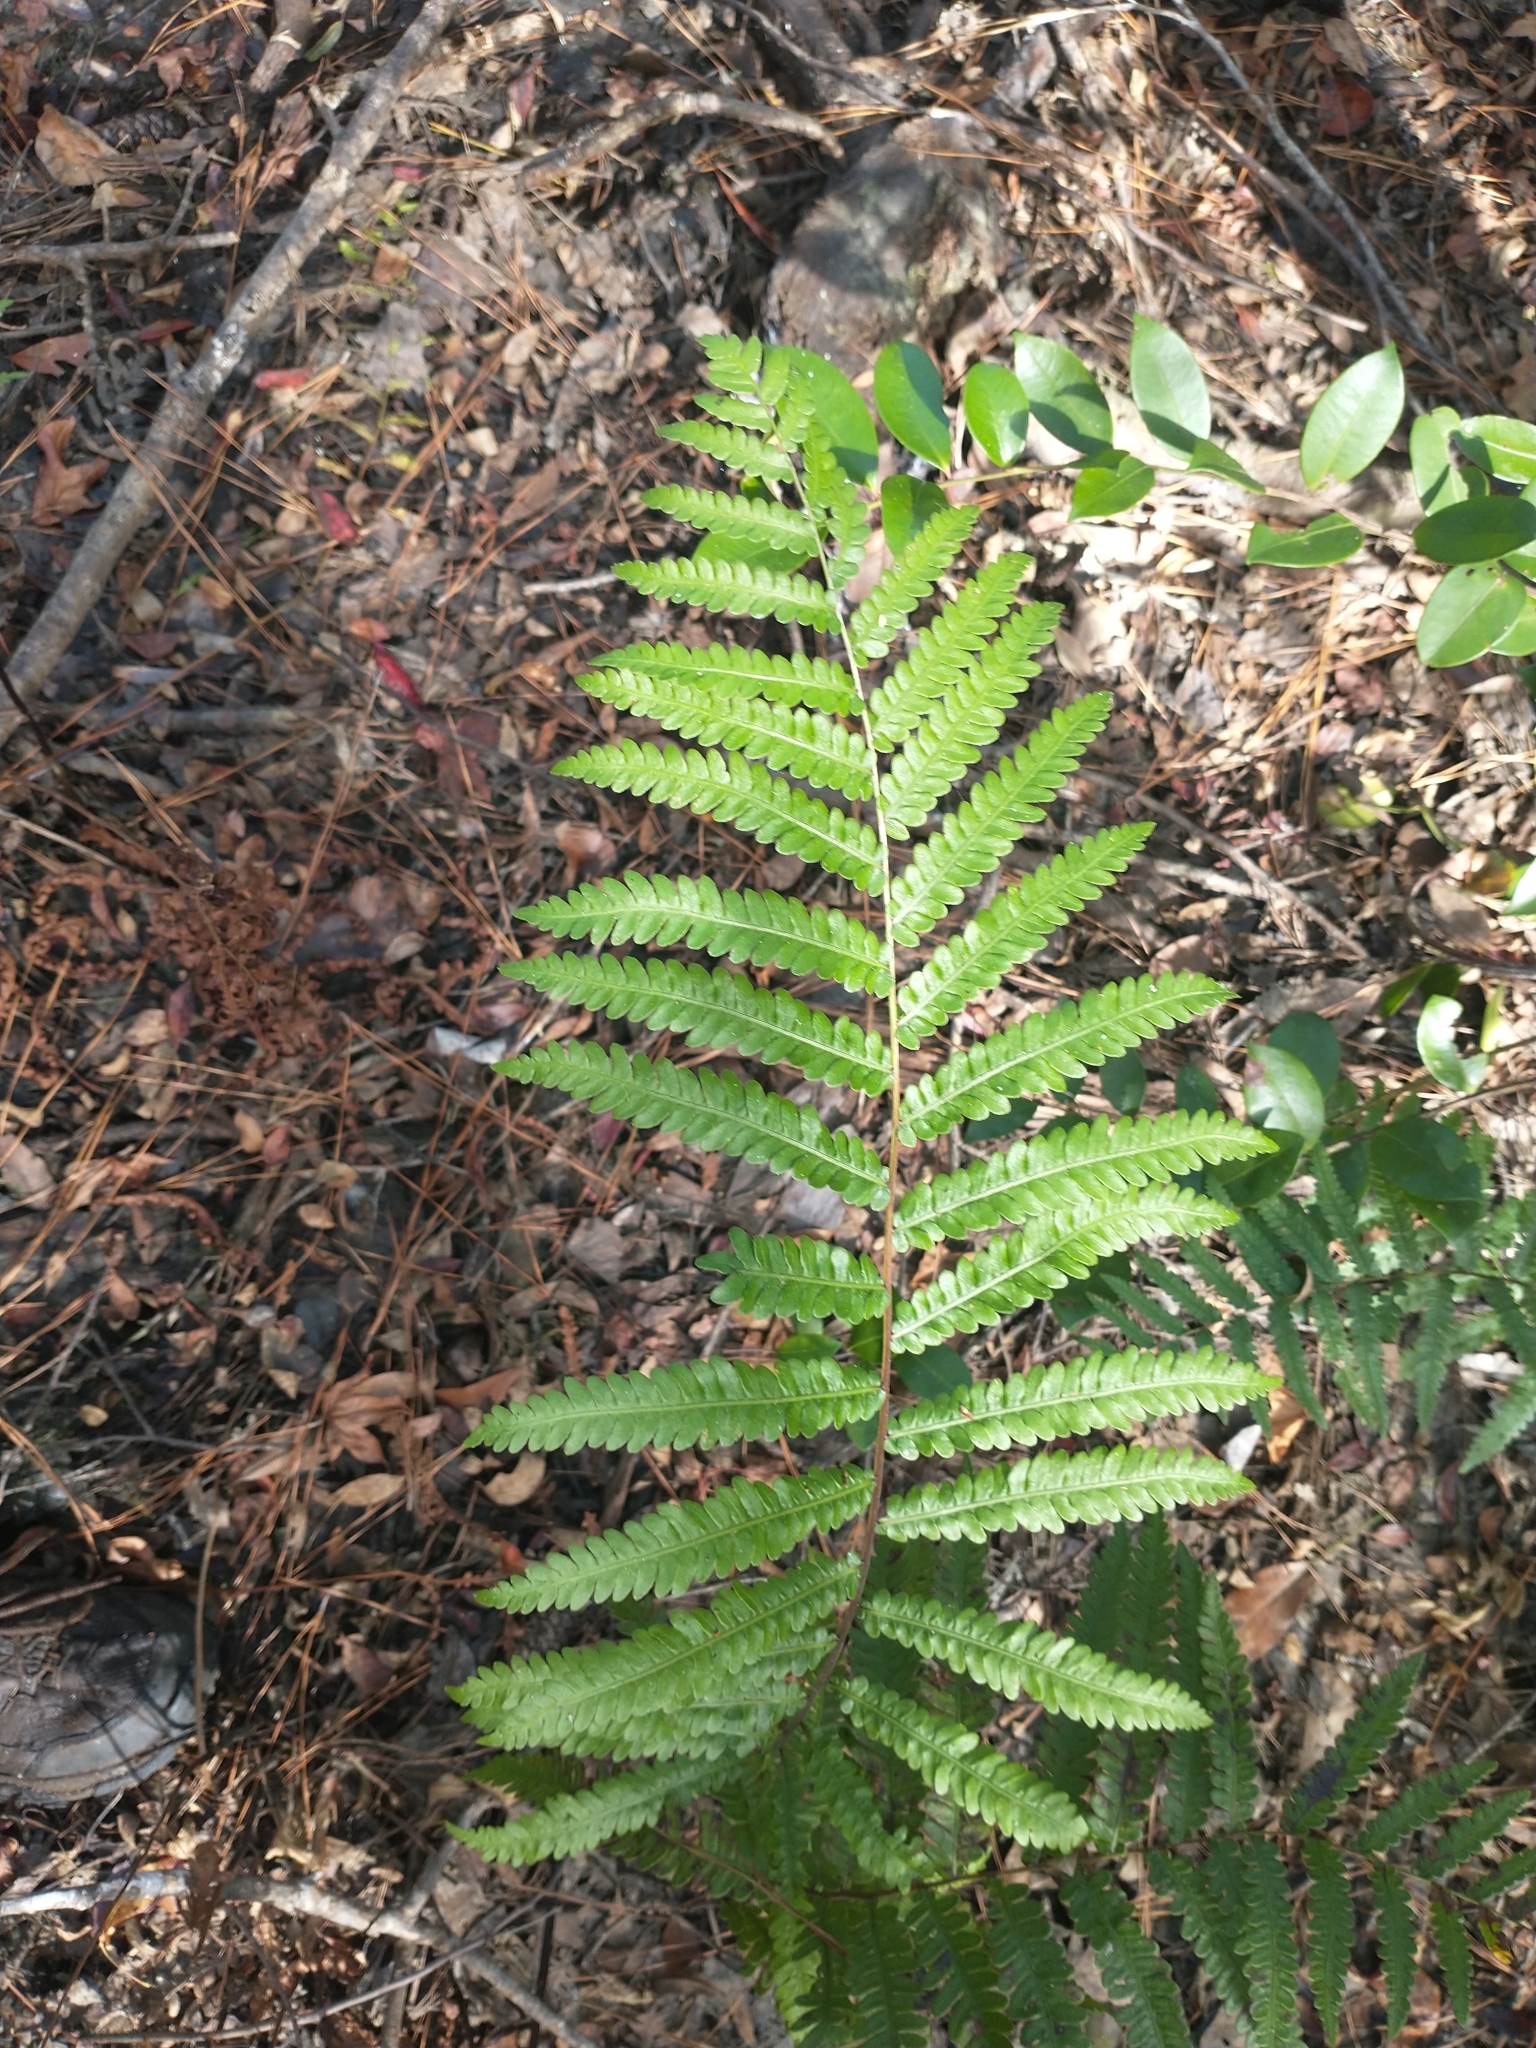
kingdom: Plantae
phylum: Tracheophyta
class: Polypodiopsida
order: Polypodiales
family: Blechnaceae
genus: Anchistea
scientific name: Anchistea virginica
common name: Virginia chain fern
